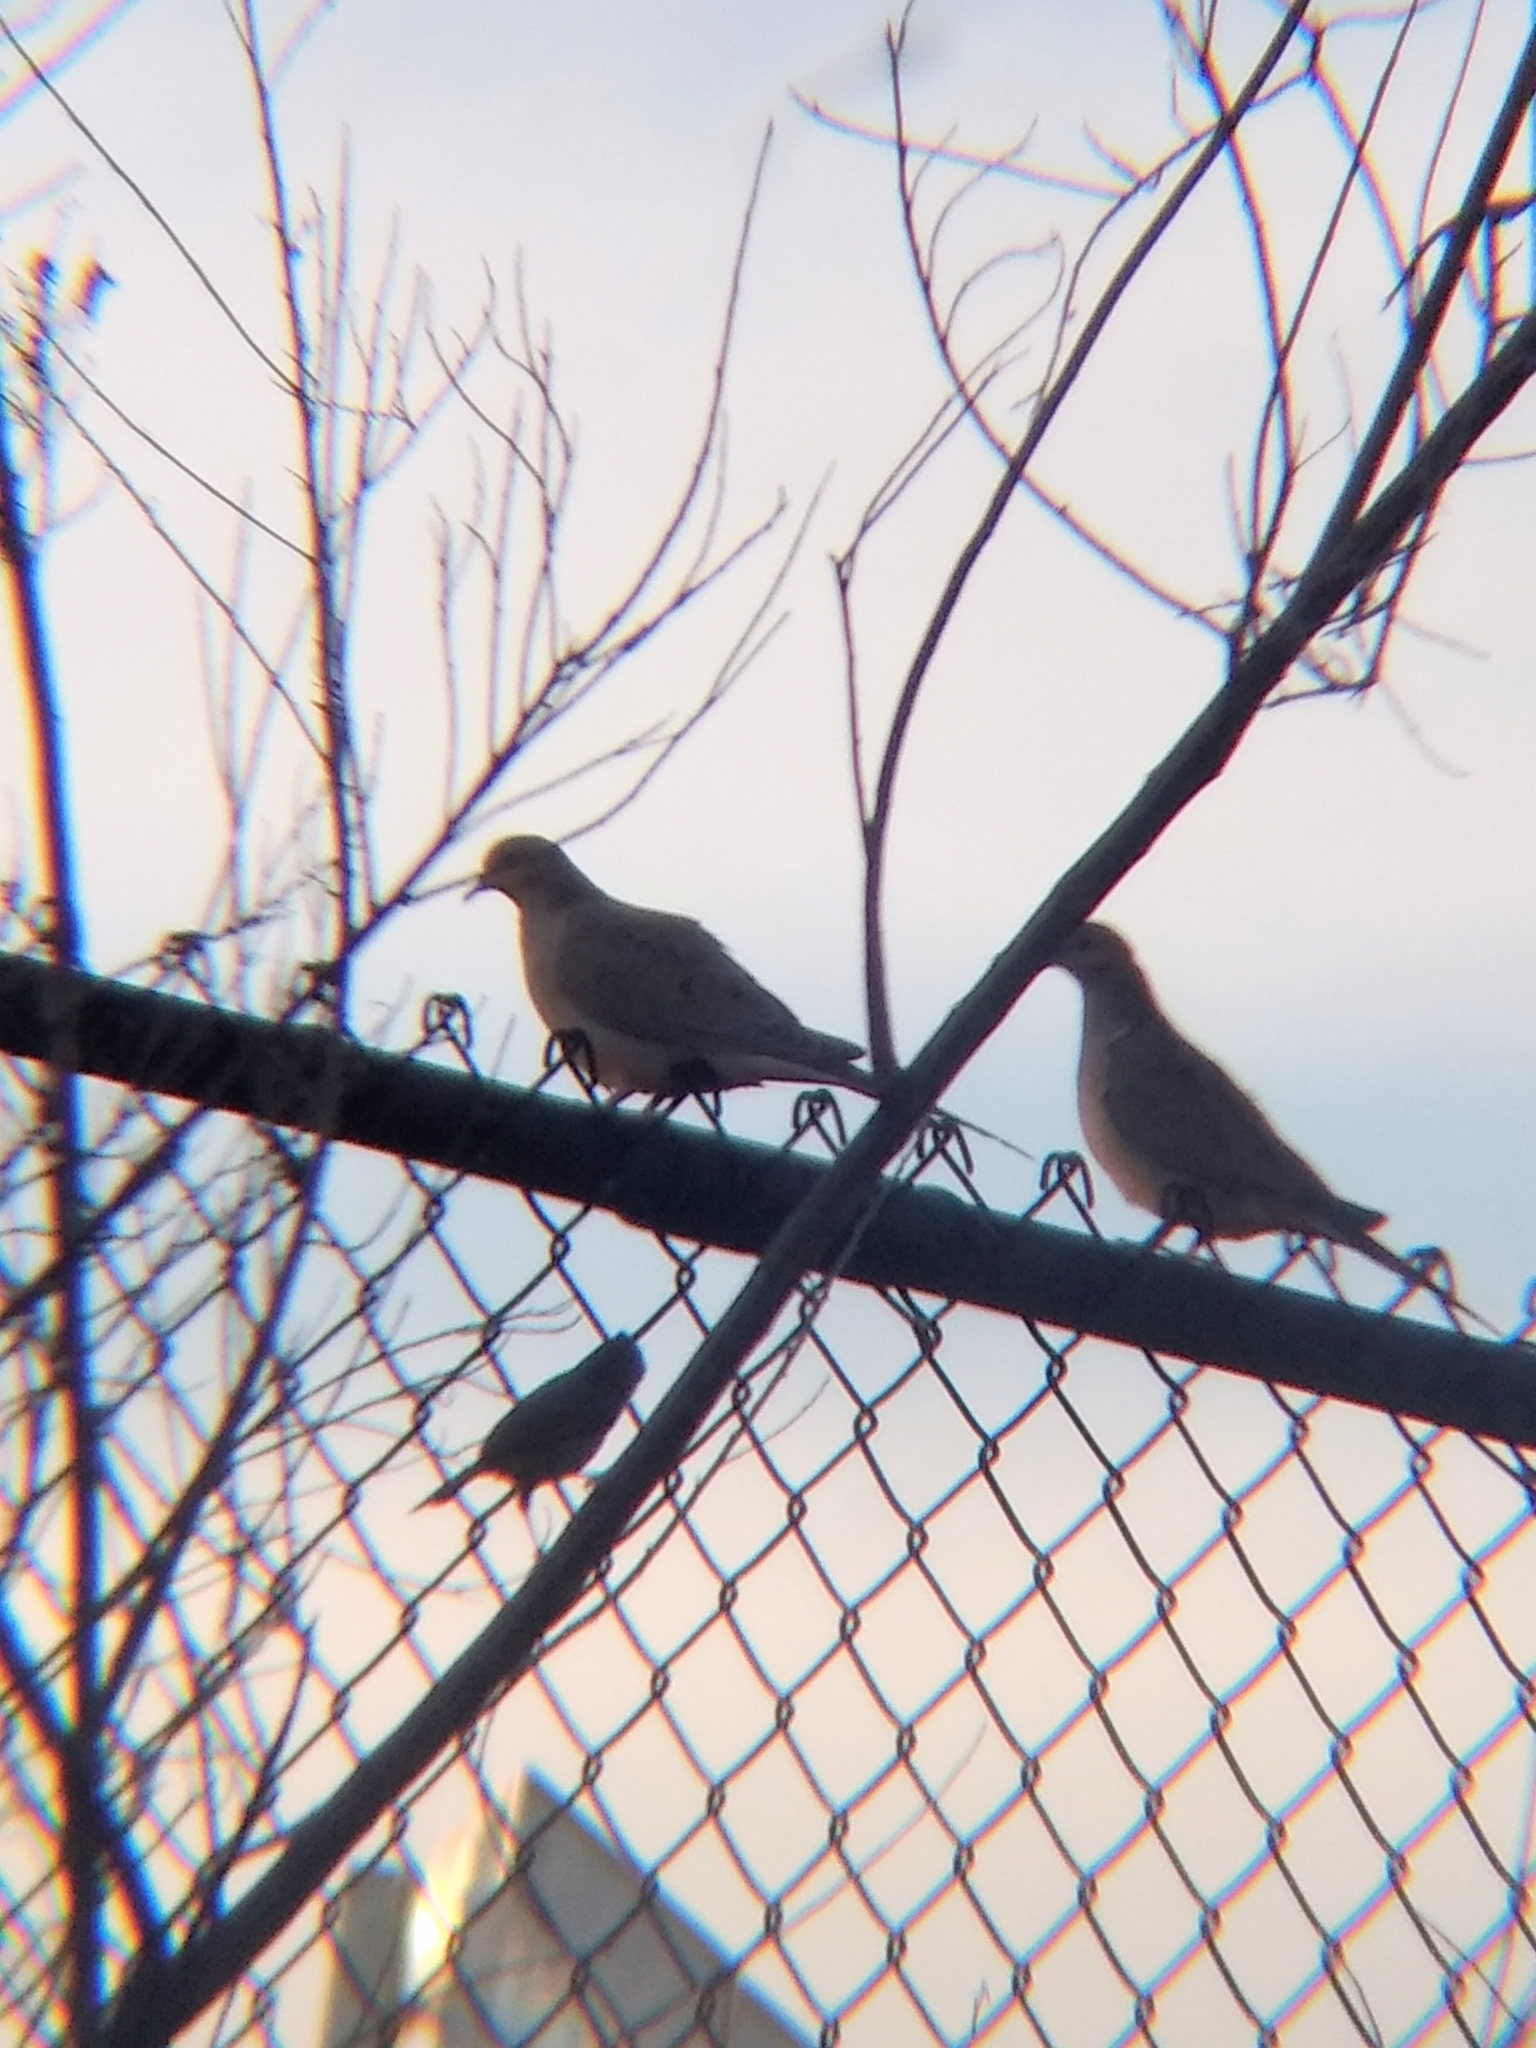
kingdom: Animalia
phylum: Chordata
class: Aves
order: Columbiformes
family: Columbidae
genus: Zenaida
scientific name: Zenaida macroura
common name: Mourning dove
